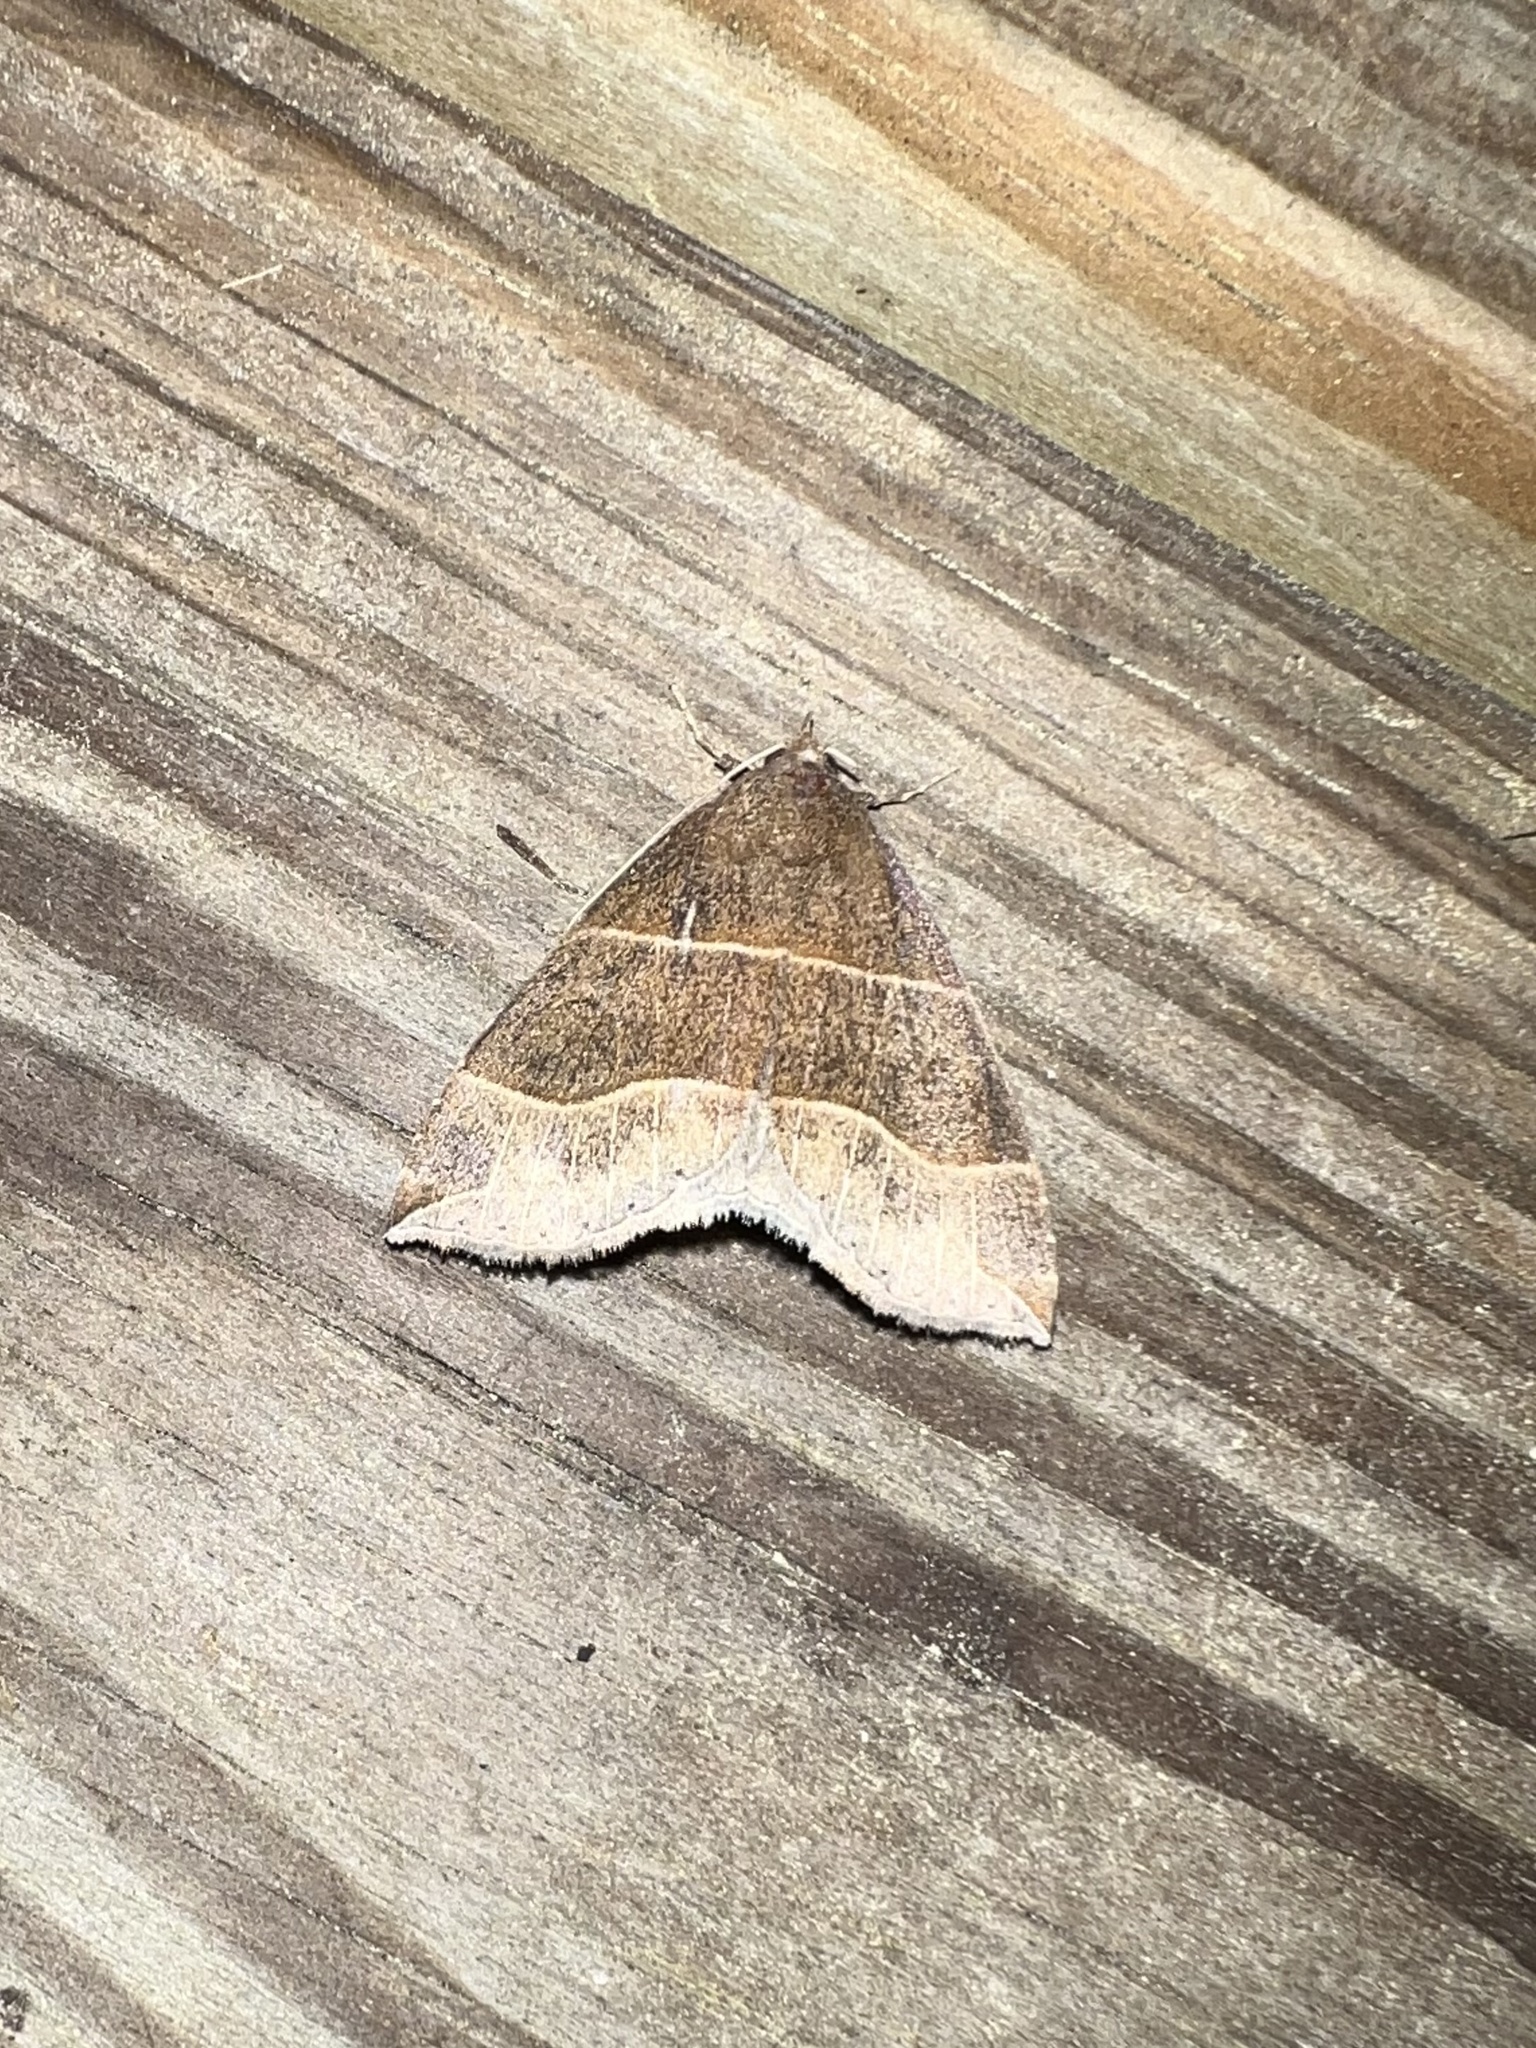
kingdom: Animalia
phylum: Arthropoda
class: Insecta
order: Lepidoptera
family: Erebidae
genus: Parallelia
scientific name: Parallelia bistriaris
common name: Maple looper moth
